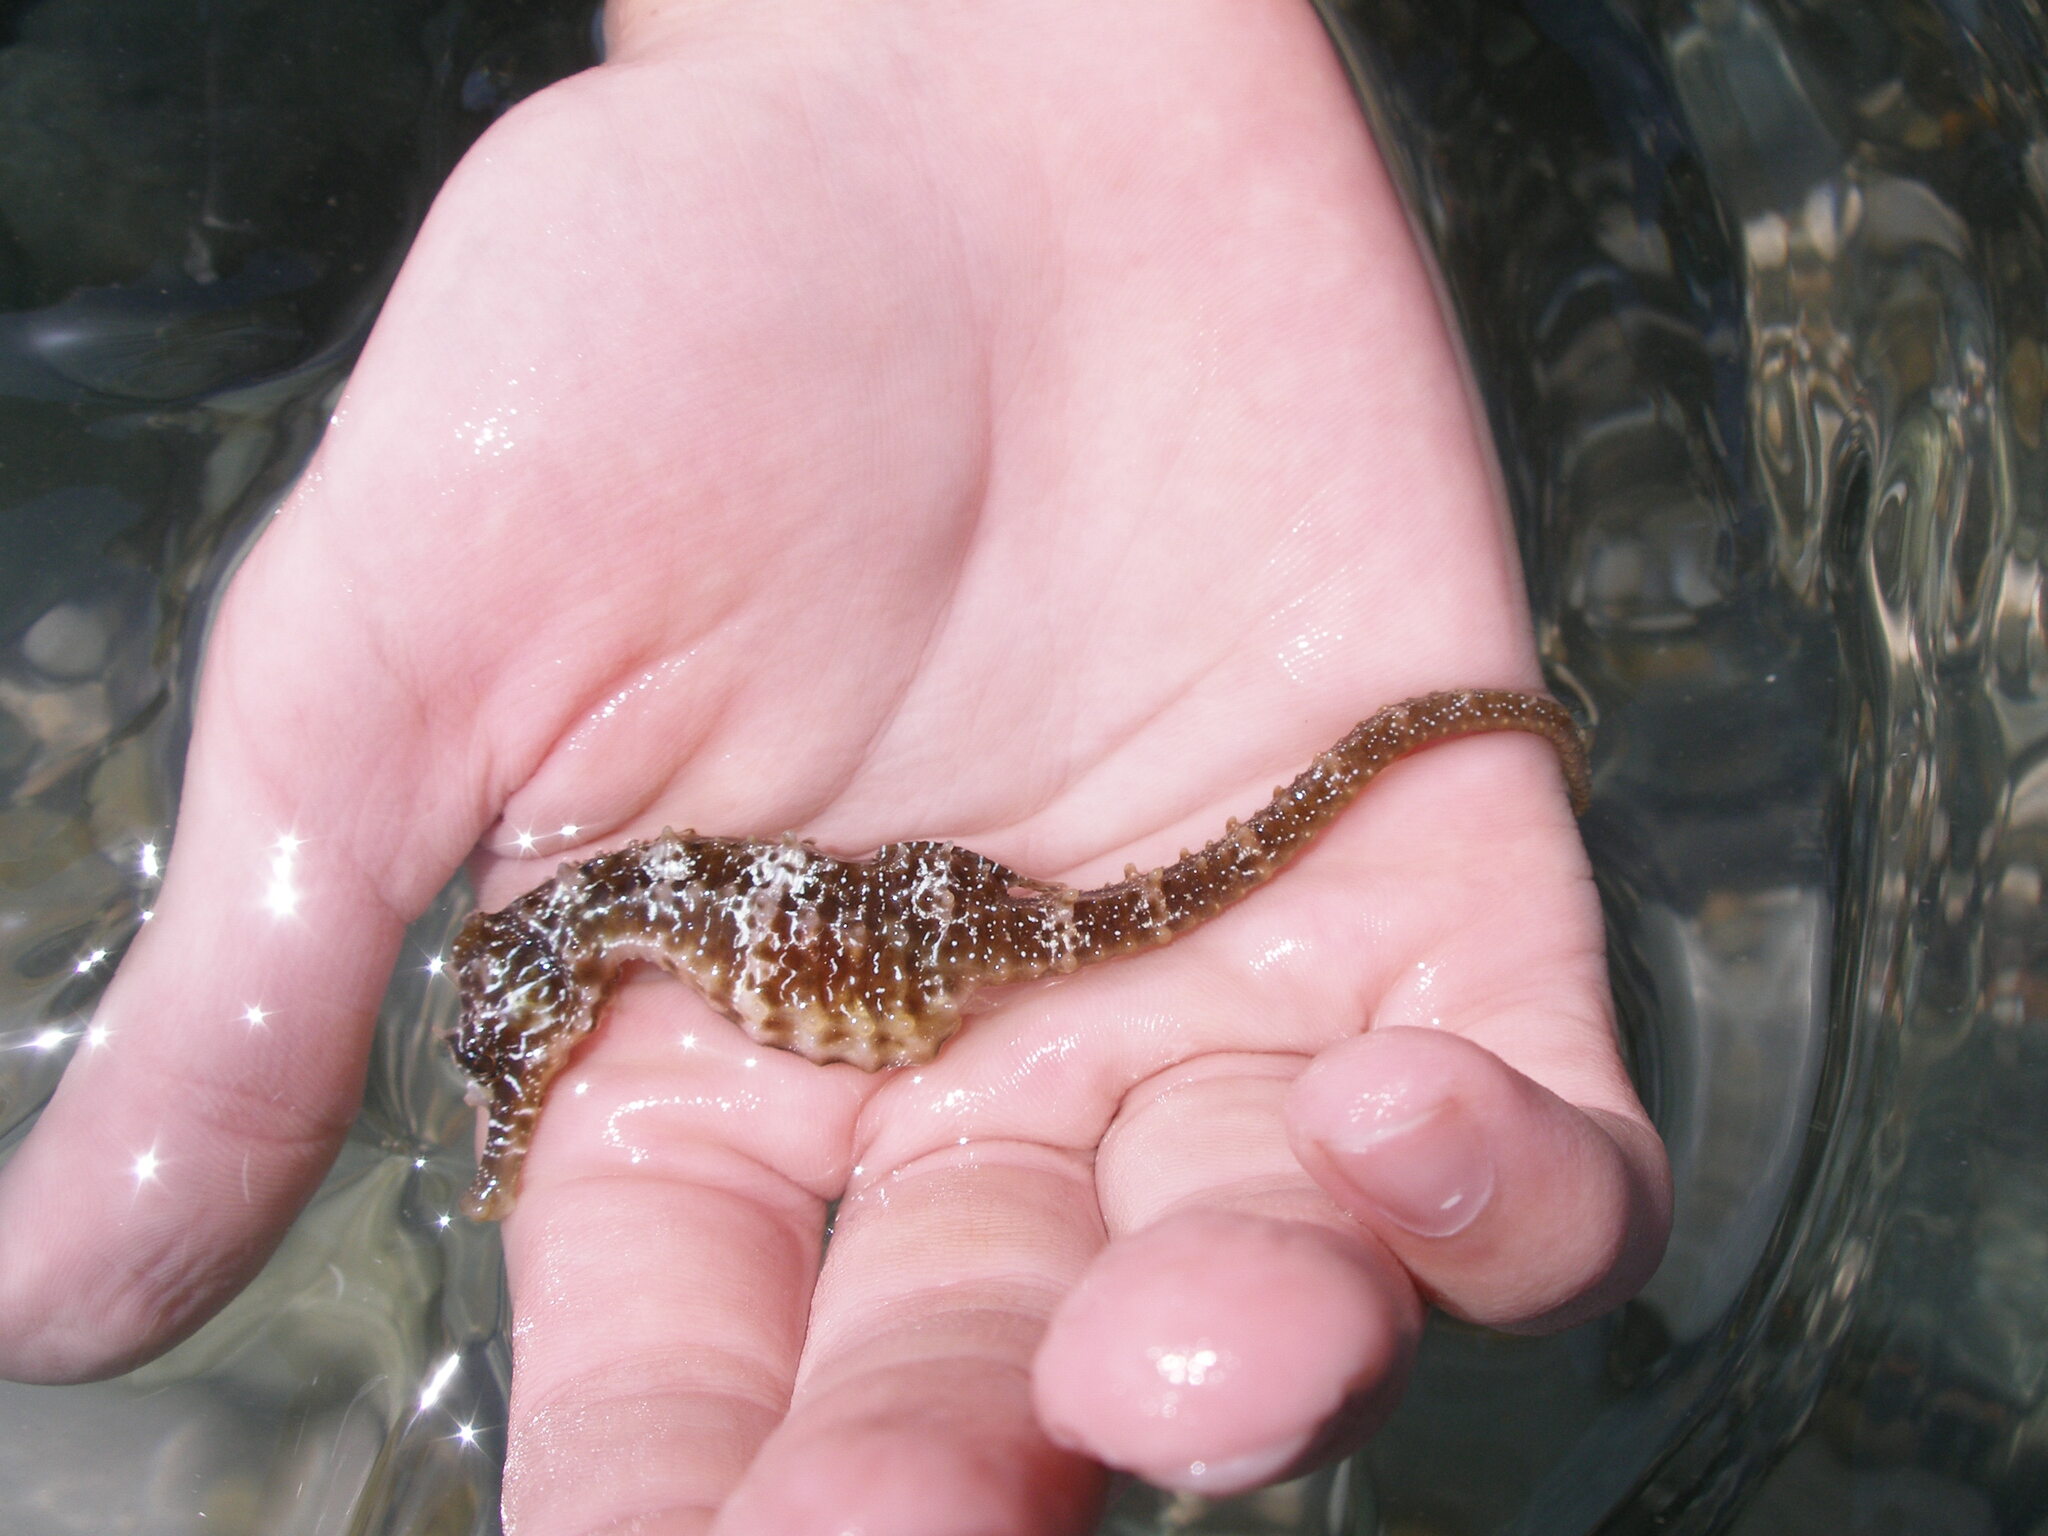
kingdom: Animalia
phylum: Chordata
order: Syngnathiformes
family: Syngnathidae
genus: Hippocampus
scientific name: Hippocampus guttulatus
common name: Long-snouted seahorse
